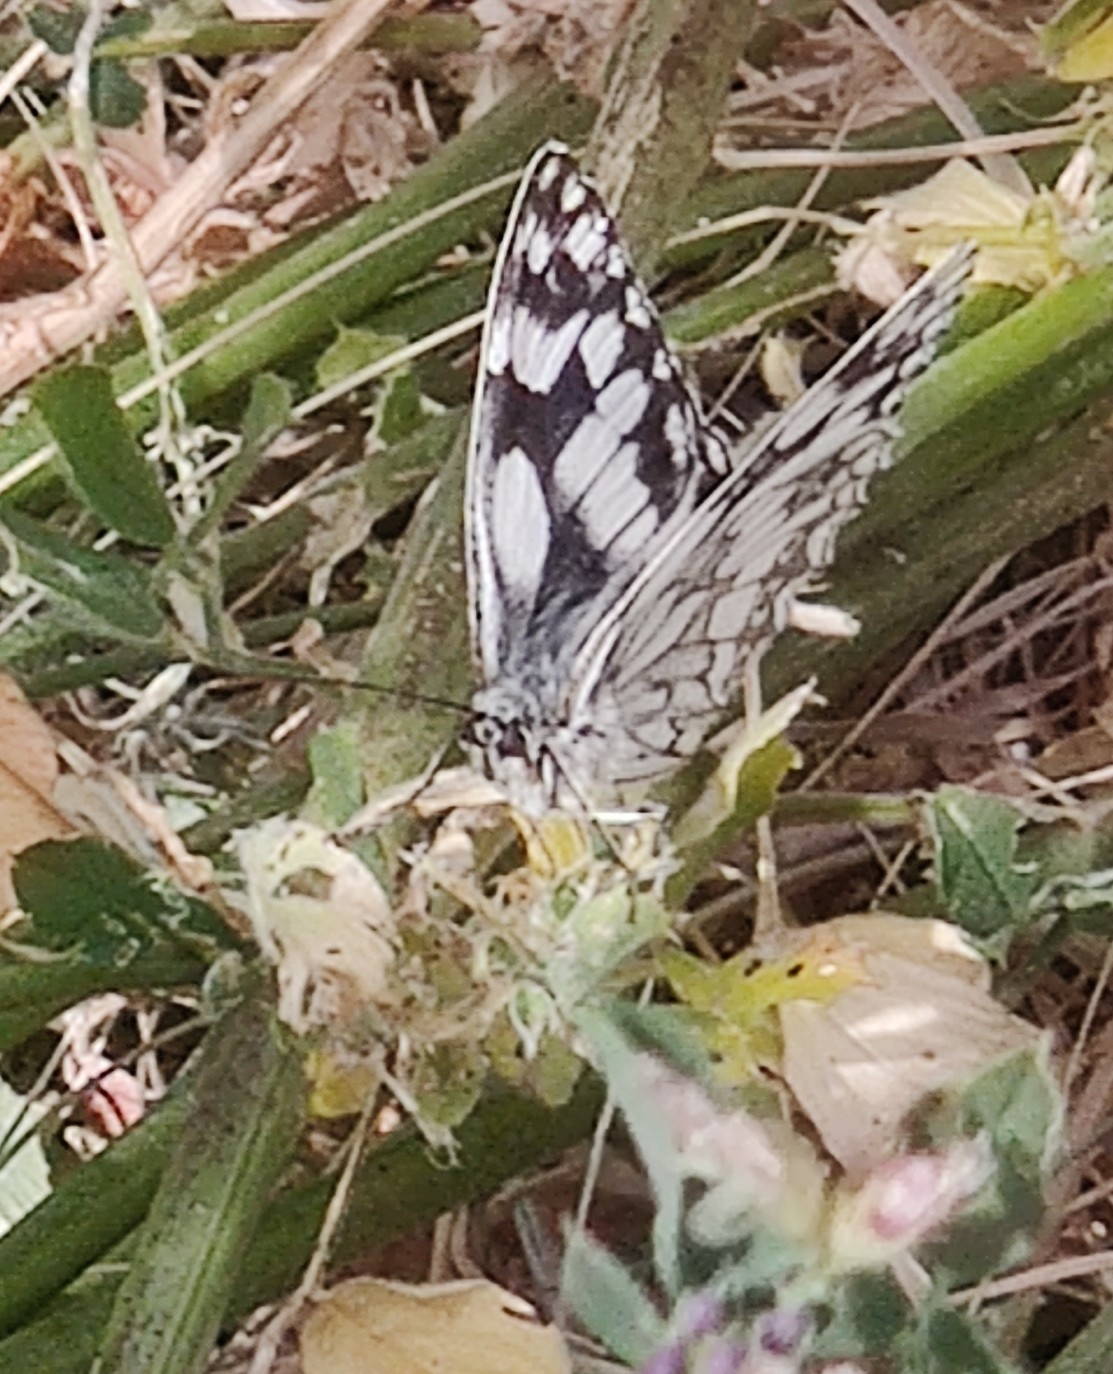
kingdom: Animalia
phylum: Arthropoda
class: Insecta
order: Lepidoptera
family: Nymphalidae
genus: Melanargia
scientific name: Melanargia galathea
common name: Marbled white
